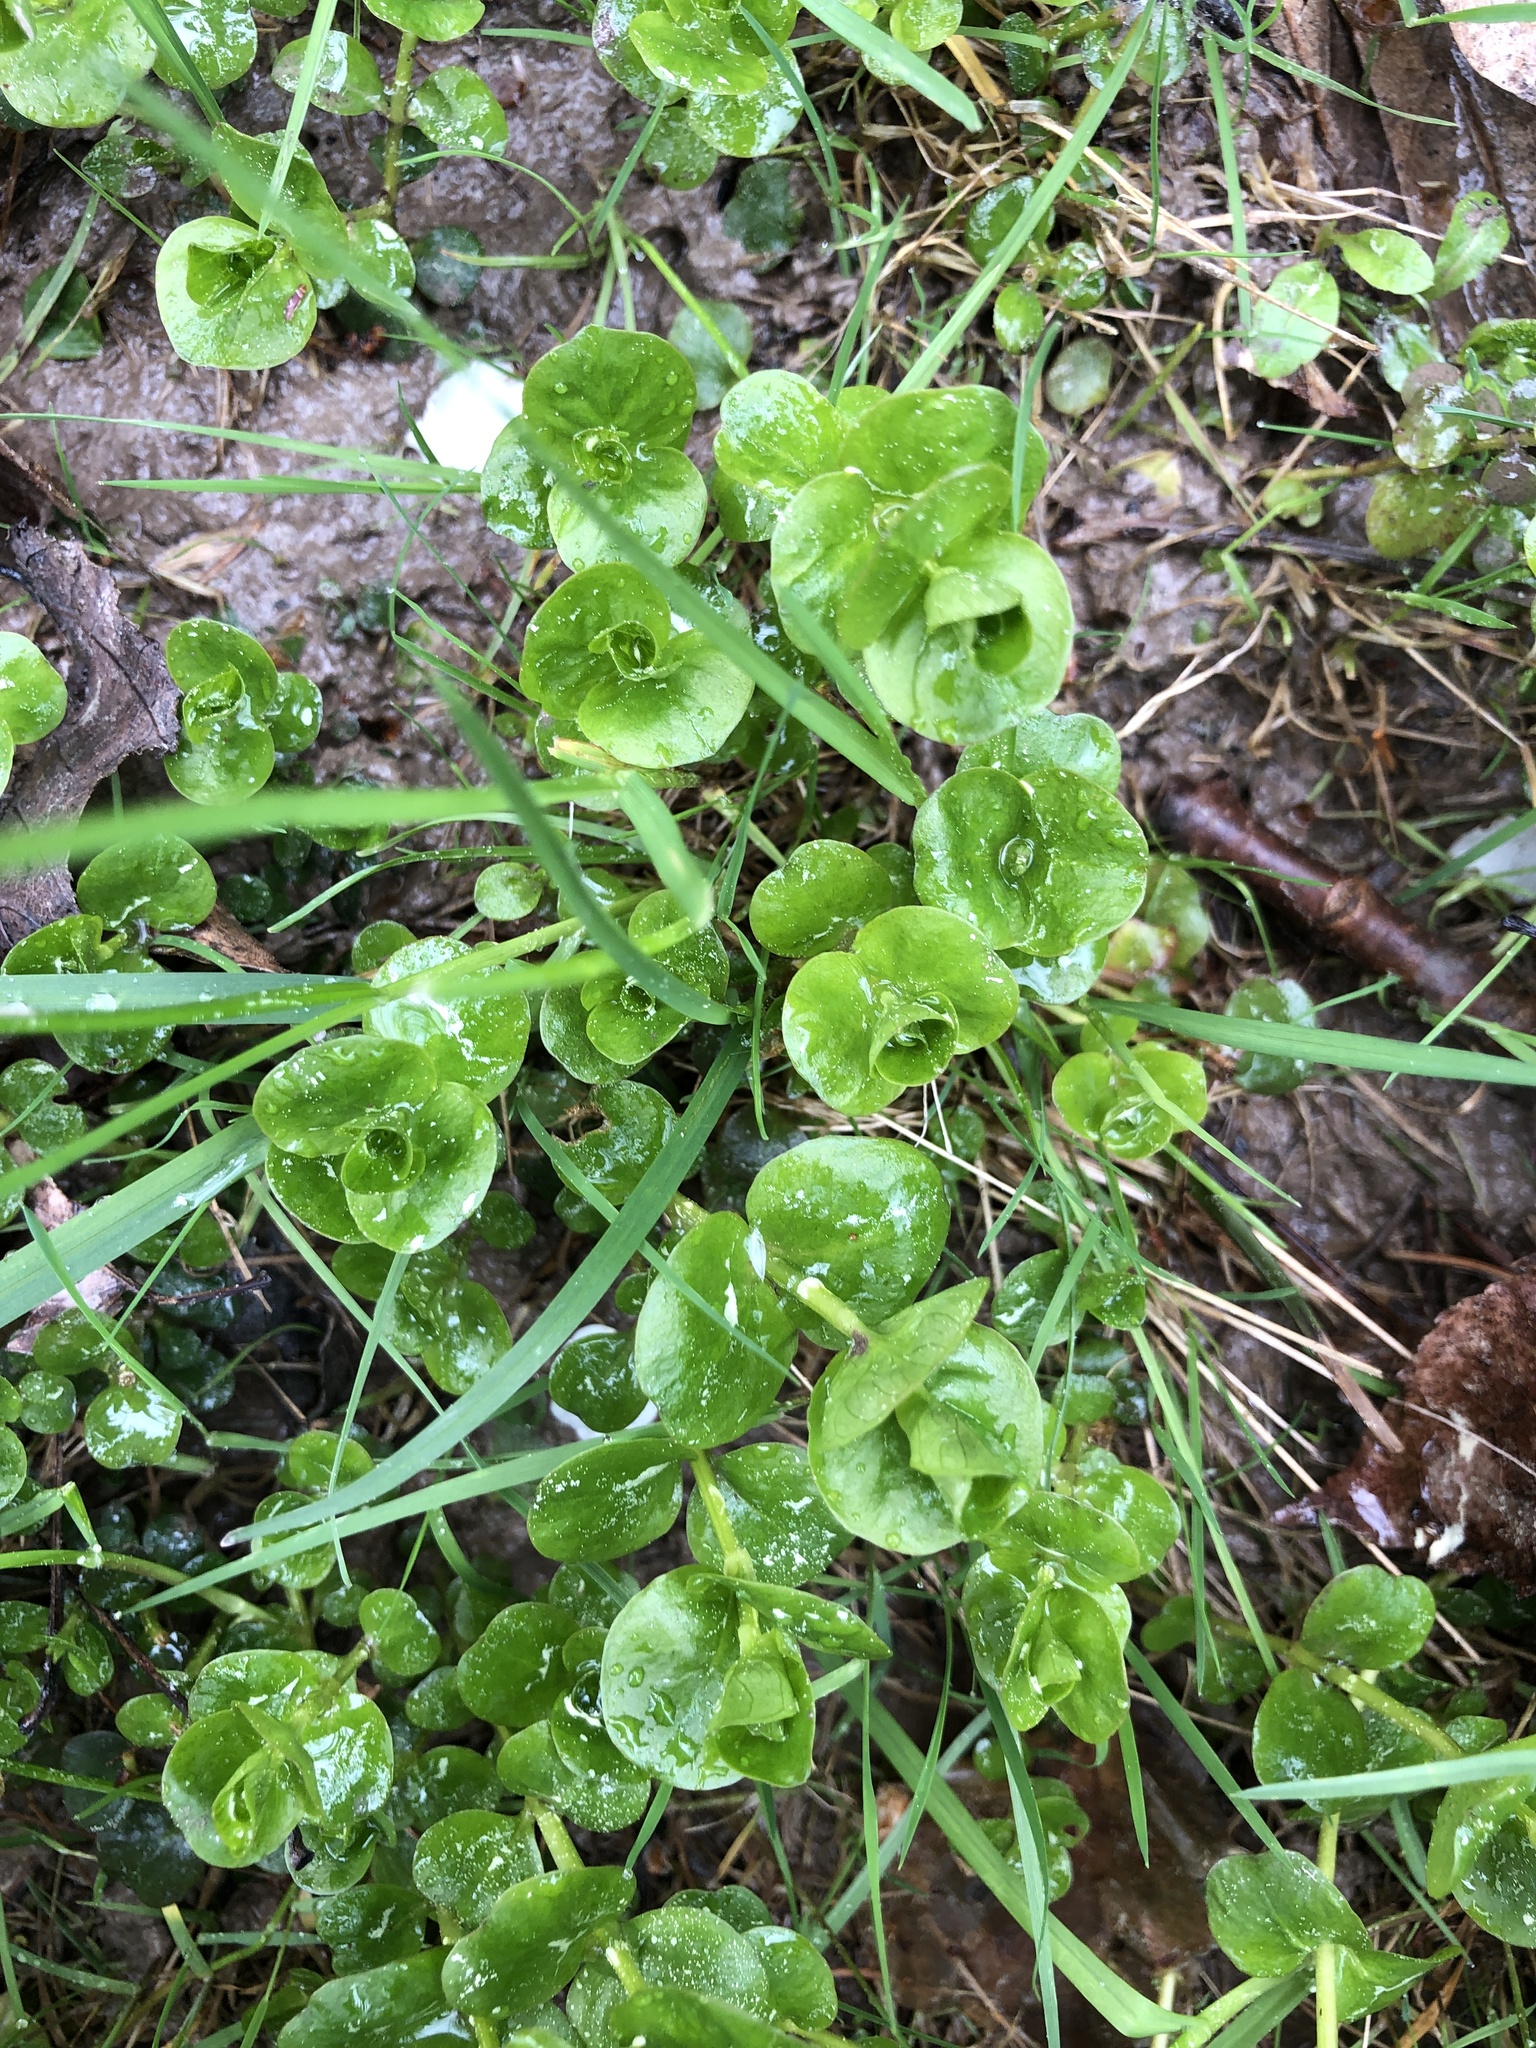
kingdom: Plantae
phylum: Tracheophyta
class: Magnoliopsida
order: Ericales
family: Primulaceae
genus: Lysimachia
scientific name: Lysimachia nummularia
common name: Moneywort
